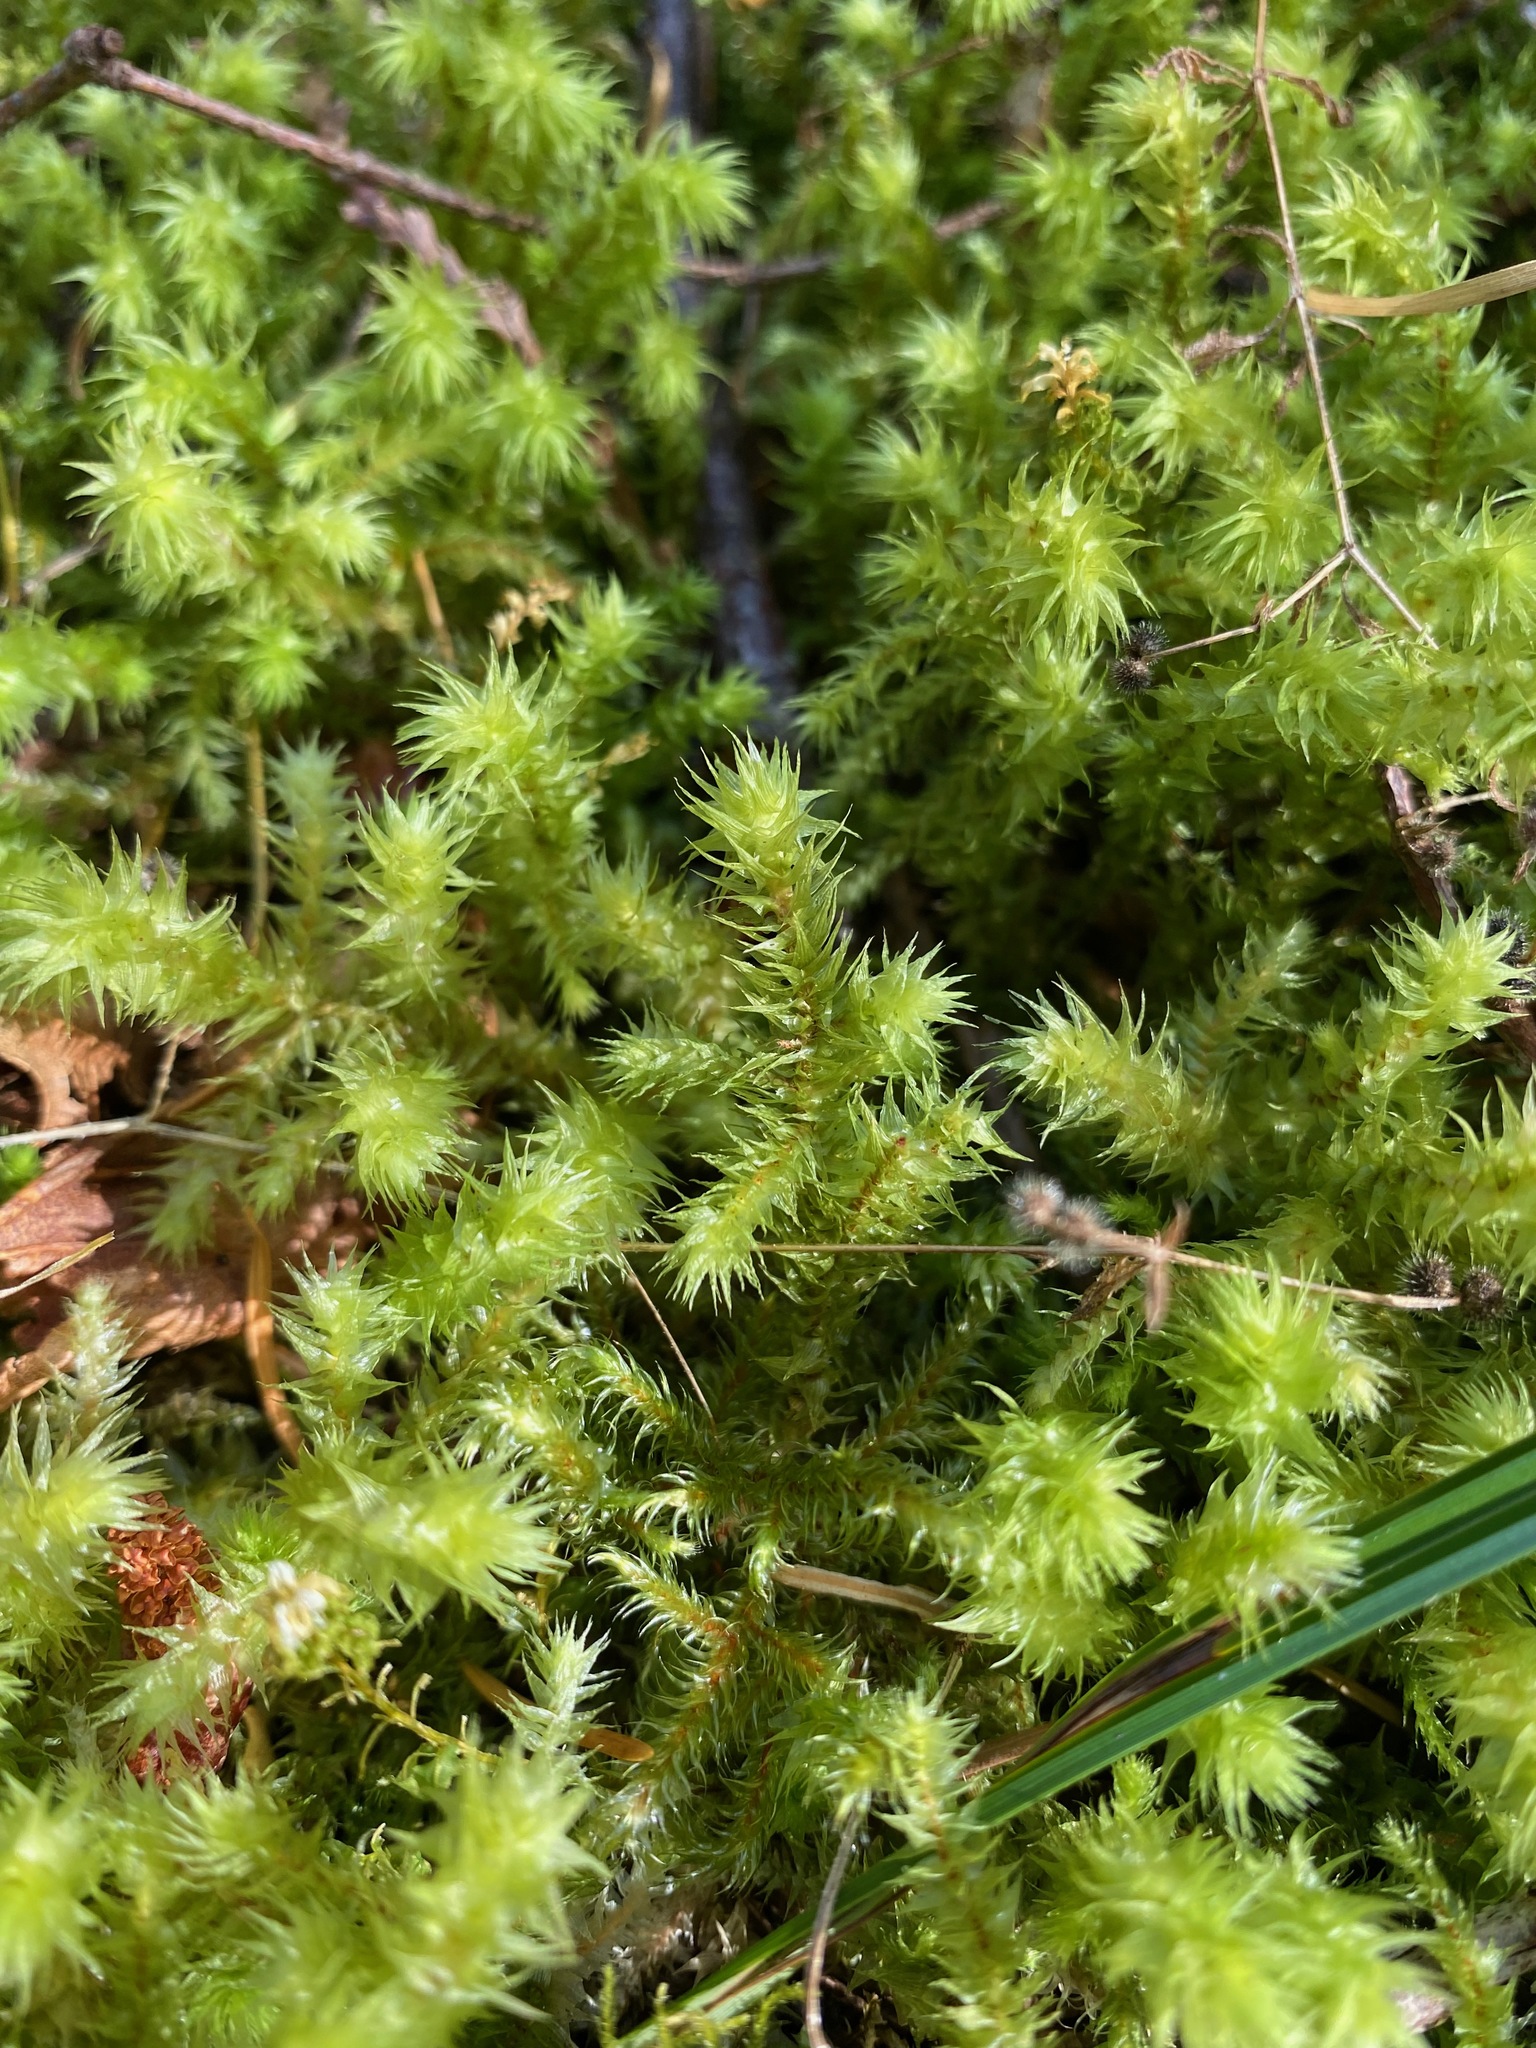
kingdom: Plantae
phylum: Bryophyta
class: Bryopsida
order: Hypnales
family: Hylocomiaceae
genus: Hylocomiadelphus
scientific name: Hylocomiadelphus triquetrus
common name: Rough goose neck moss
